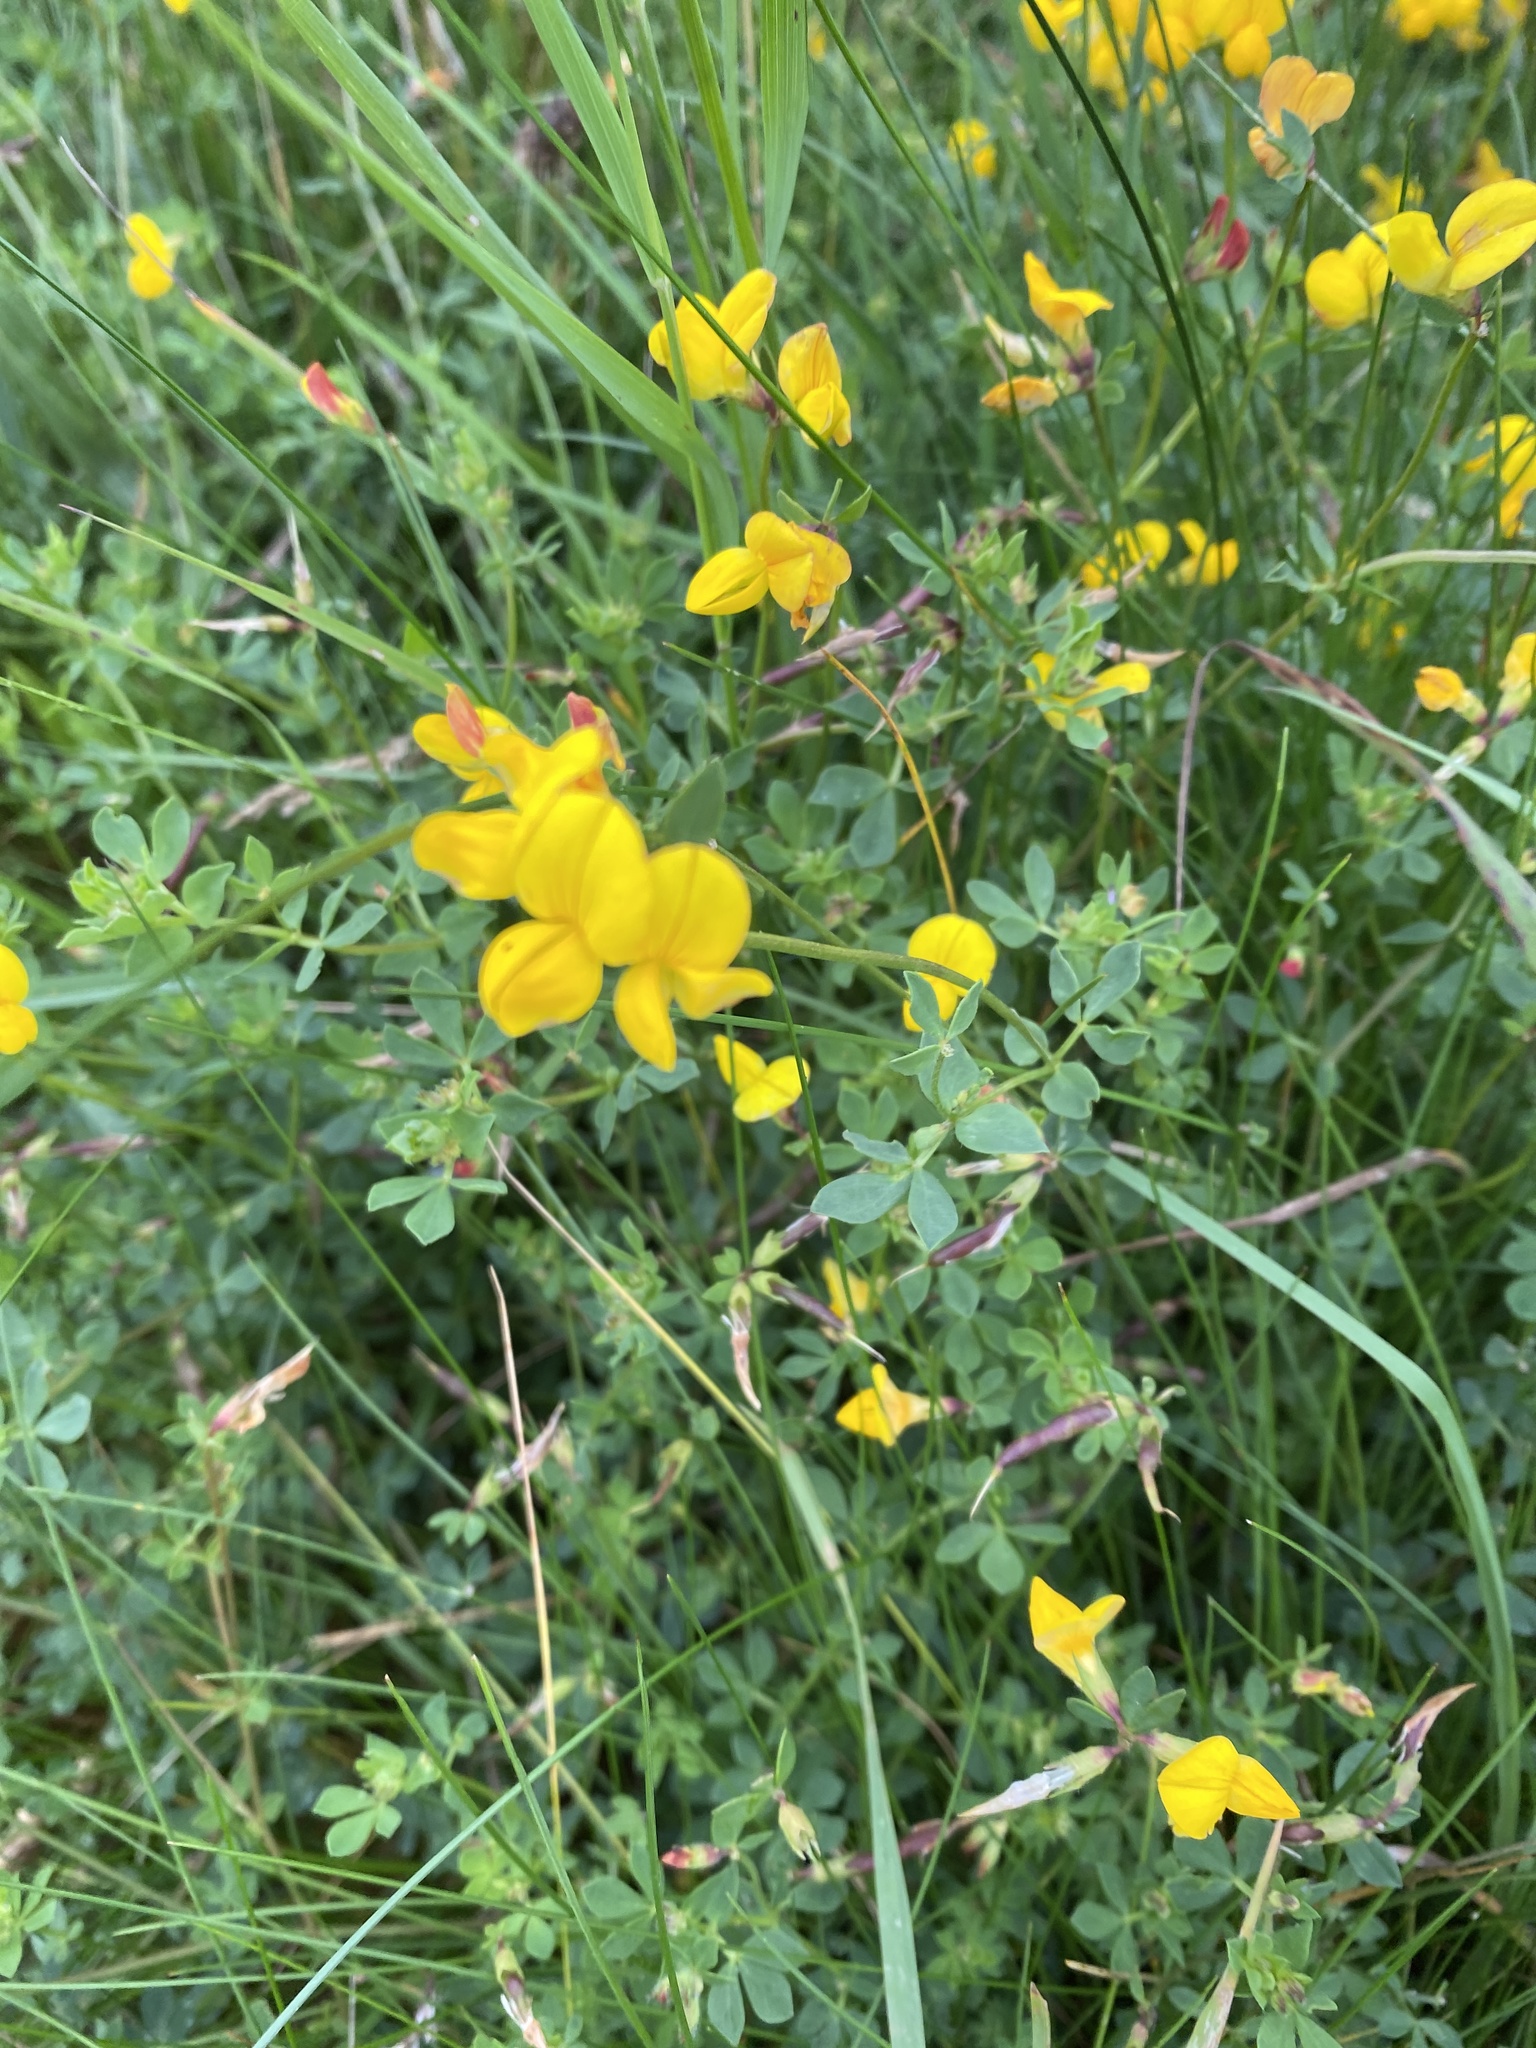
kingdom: Plantae
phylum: Tracheophyta
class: Magnoliopsida
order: Fabales
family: Fabaceae
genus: Lotus
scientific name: Lotus corniculatus
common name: Common bird's-foot-trefoil
